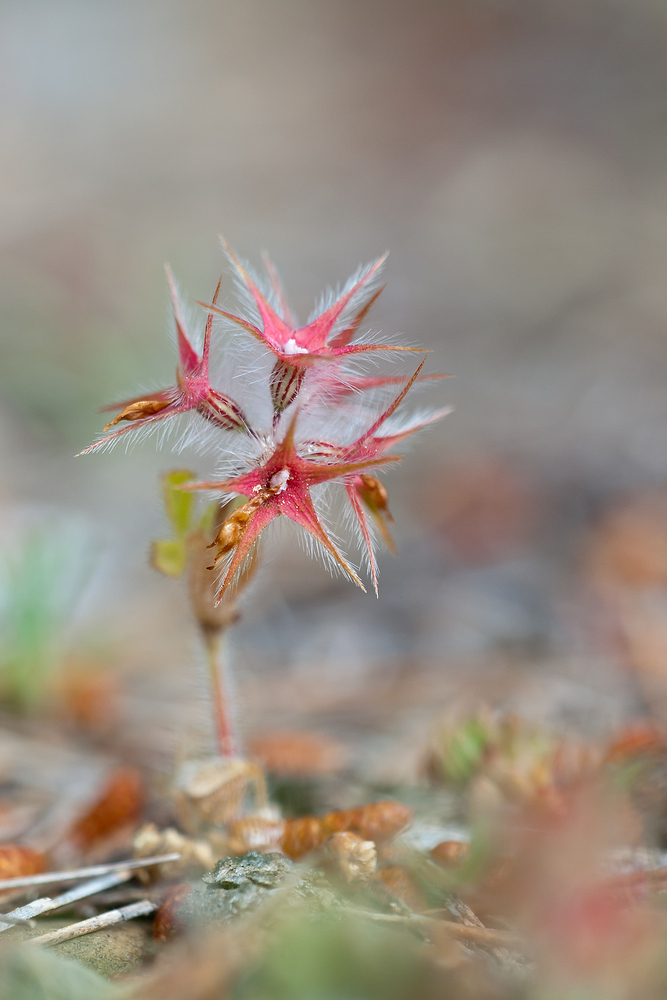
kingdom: Plantae
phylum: Tracheophyta
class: Magnoliopsida
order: Fabales
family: Fabaceae
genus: Trifolium
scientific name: Trifolium stellatum
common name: Starry clover
